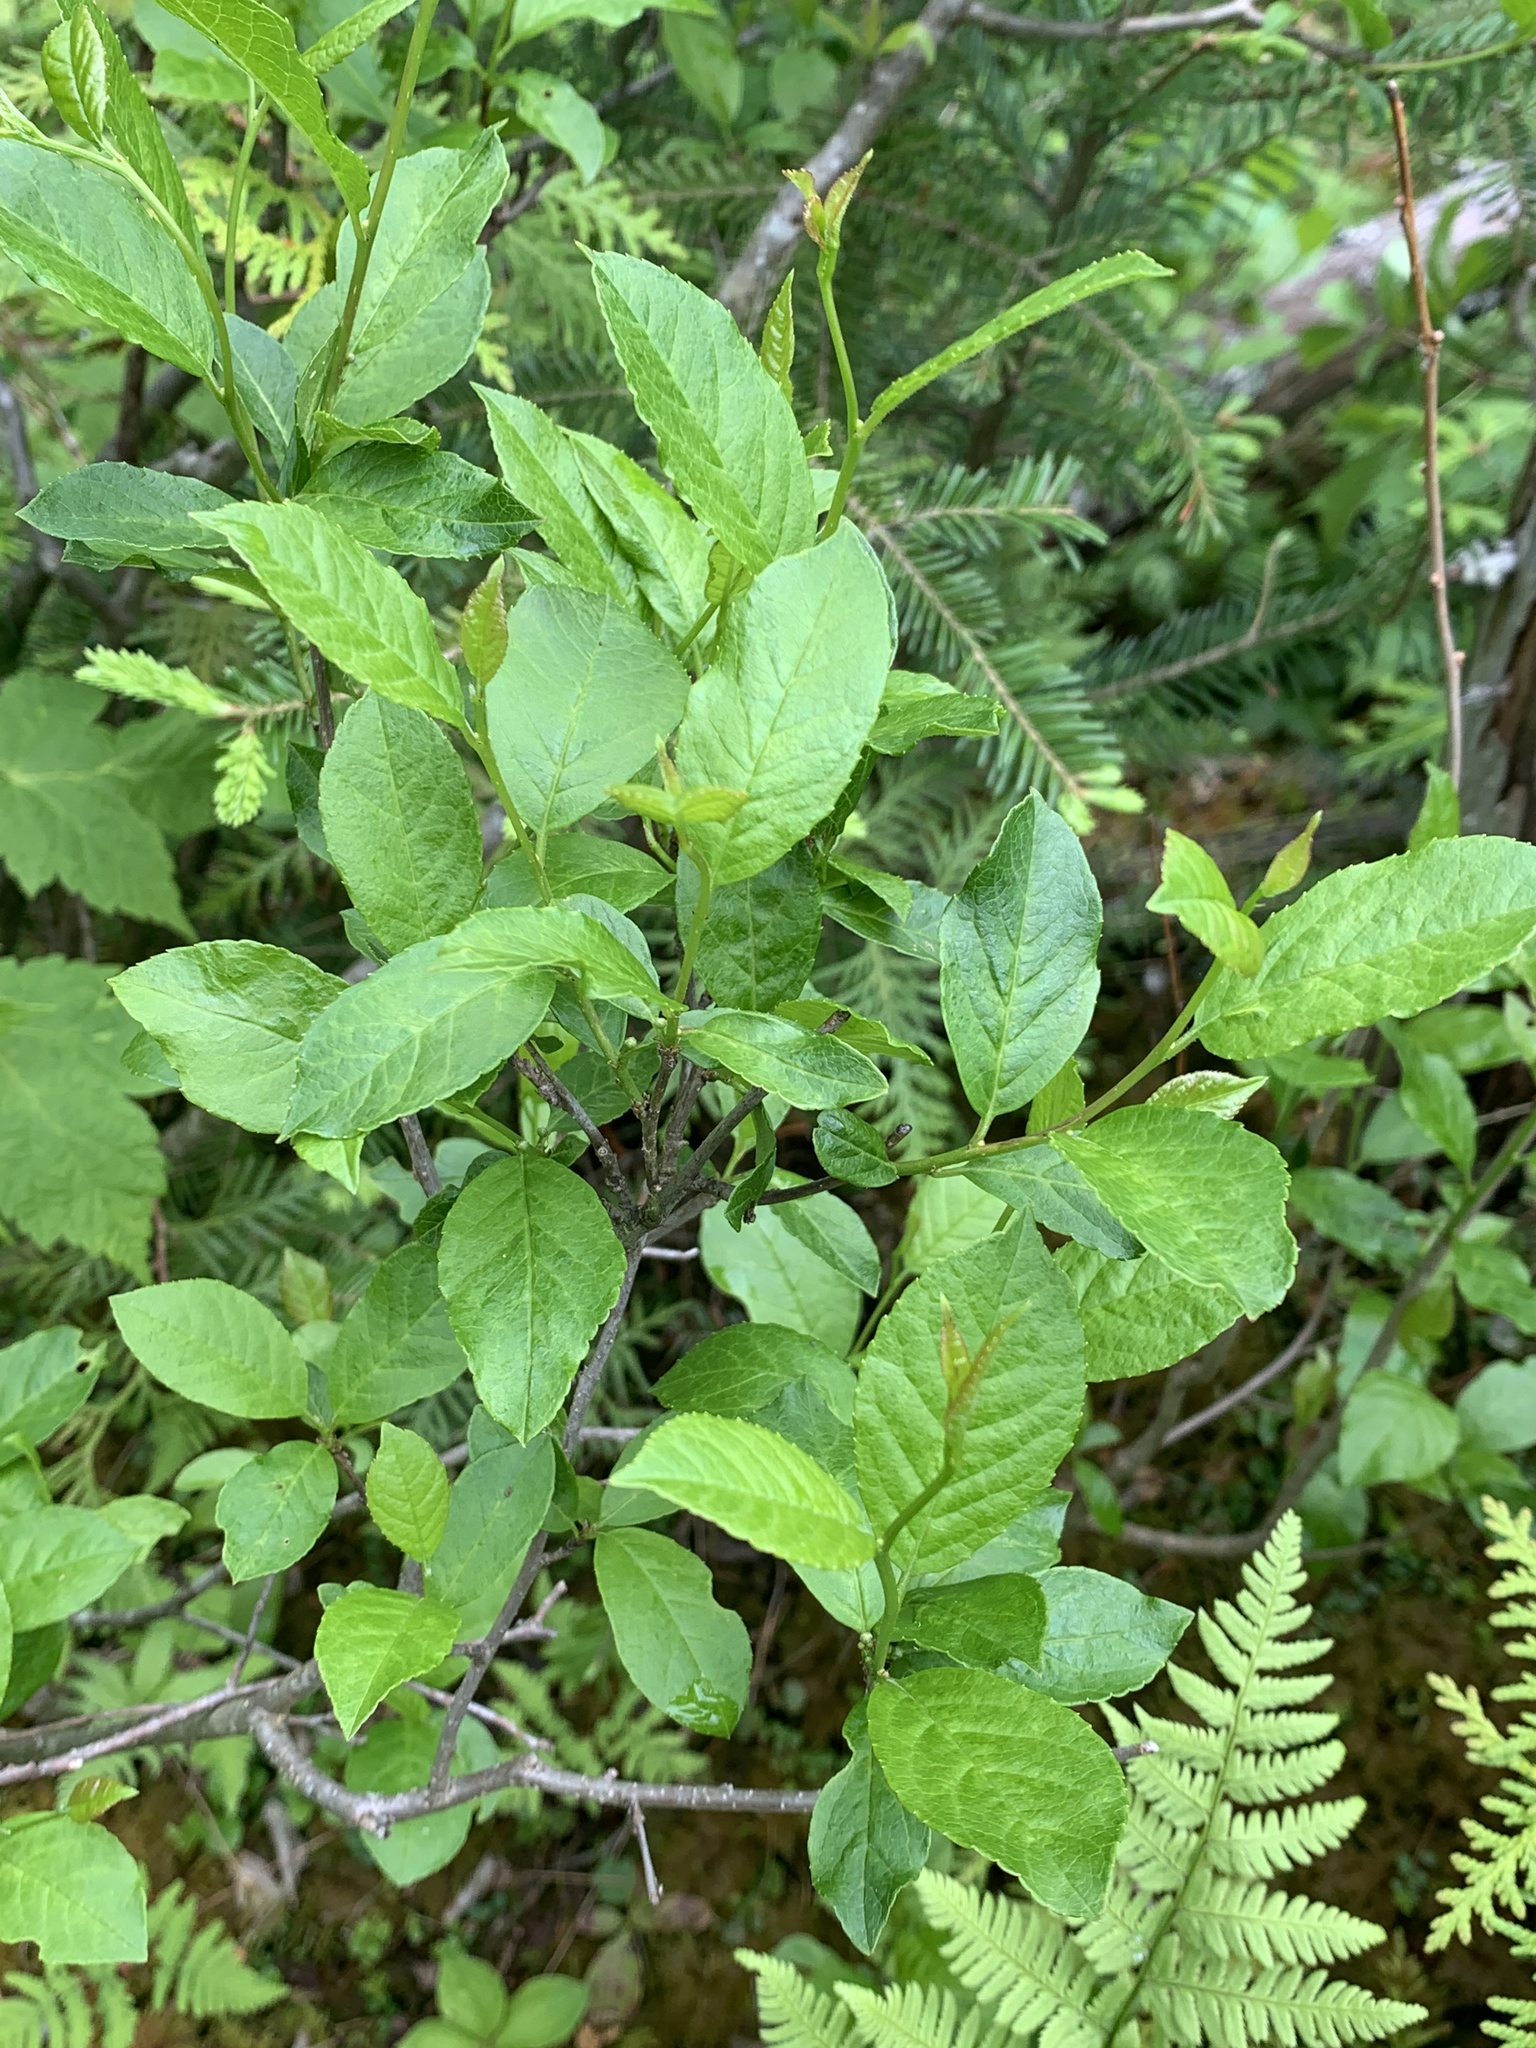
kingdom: Plantae
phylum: Tracheophyta
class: Magnoliopsida
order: Aquifoliales
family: Aquifoliaceae
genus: Ilex
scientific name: Ilex verticillata
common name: Virginia winterberry
